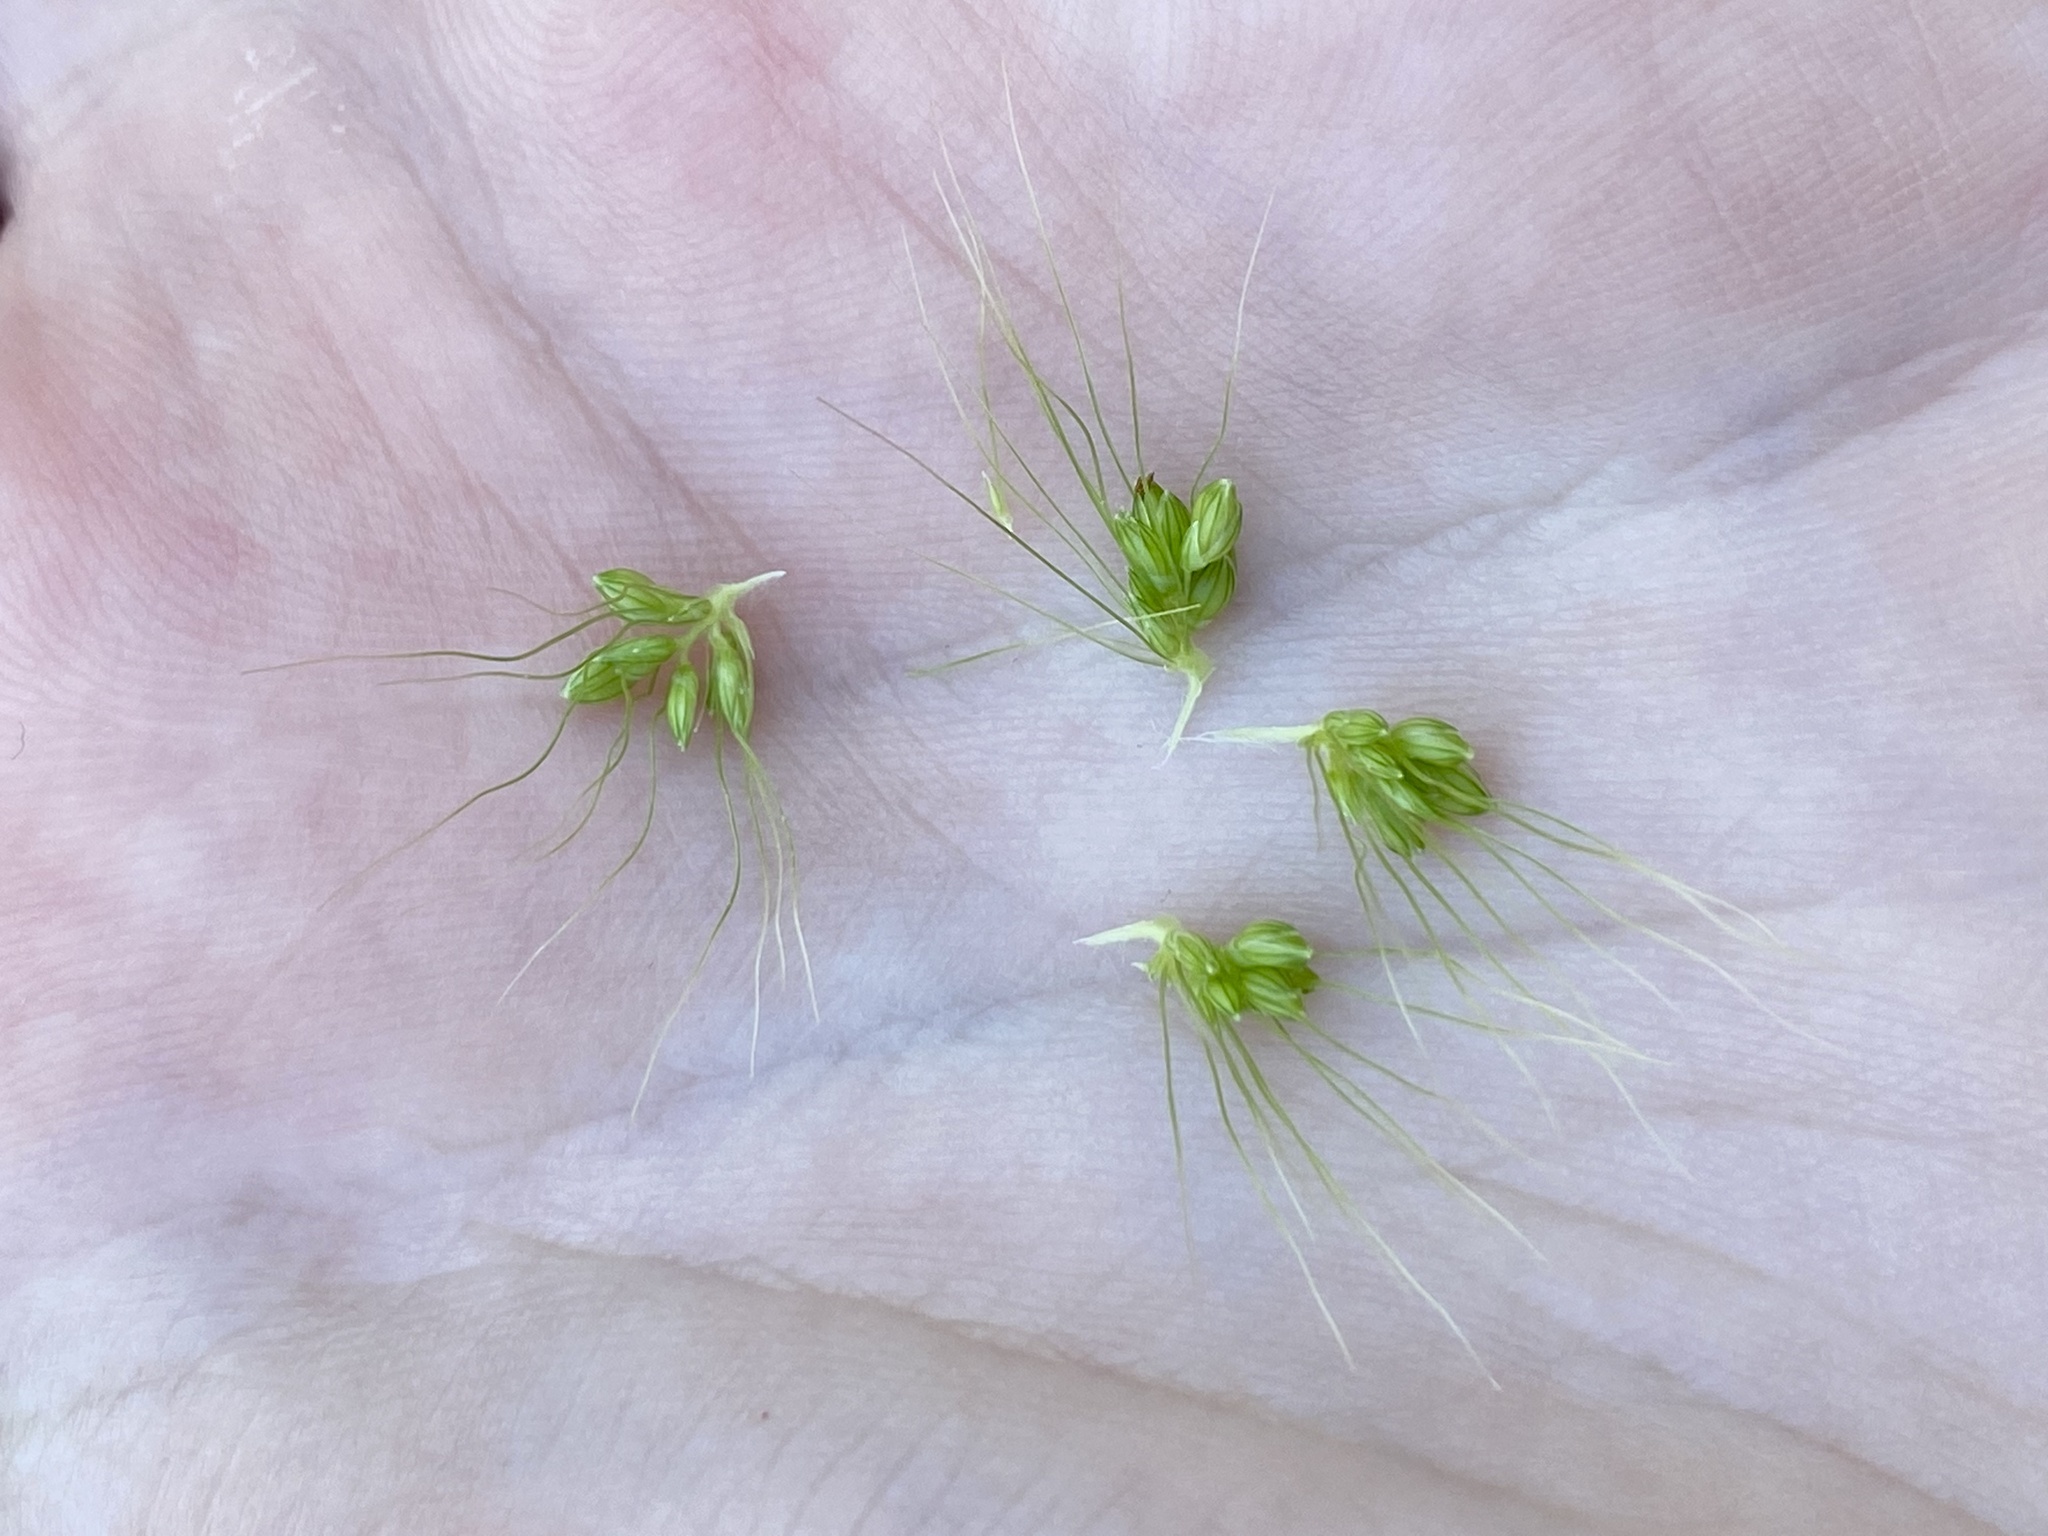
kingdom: Plantae
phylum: Tracheophyta
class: Liliopsida
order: Poales
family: Poaceae
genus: Setaria
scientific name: Setaria faberi
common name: Nodding bristle-grass
